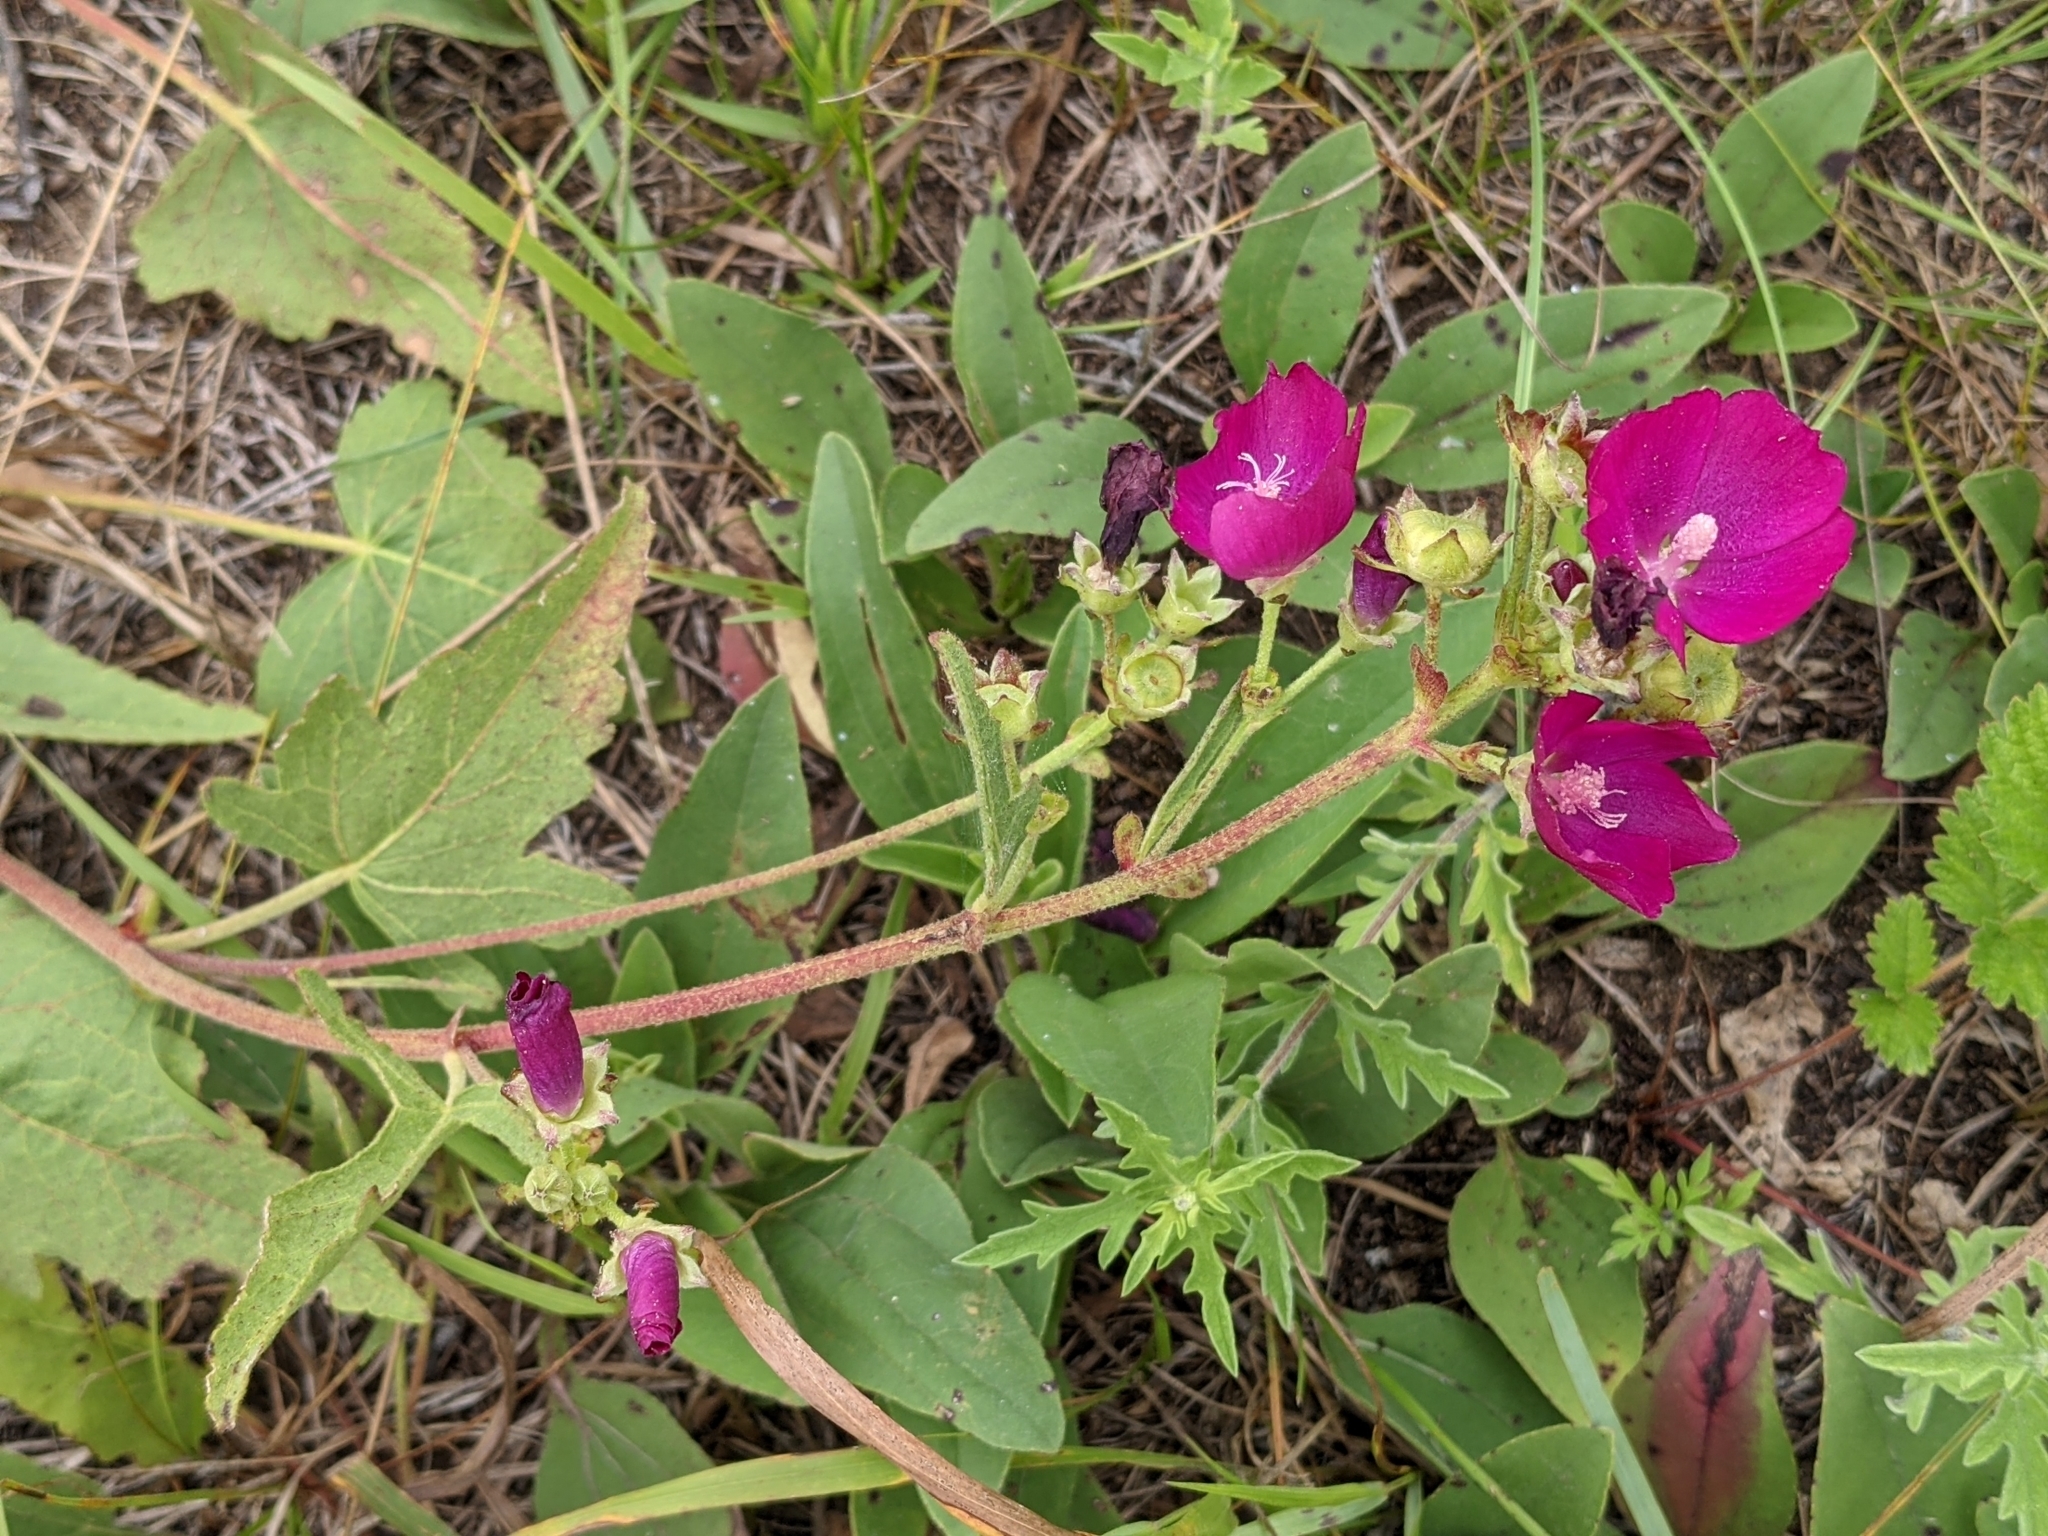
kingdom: Plantae
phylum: Tracheophyta
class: Magnoliopsida
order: Malvales
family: Malvaceae
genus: Callirhoe
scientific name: Callirhoe triangulata
